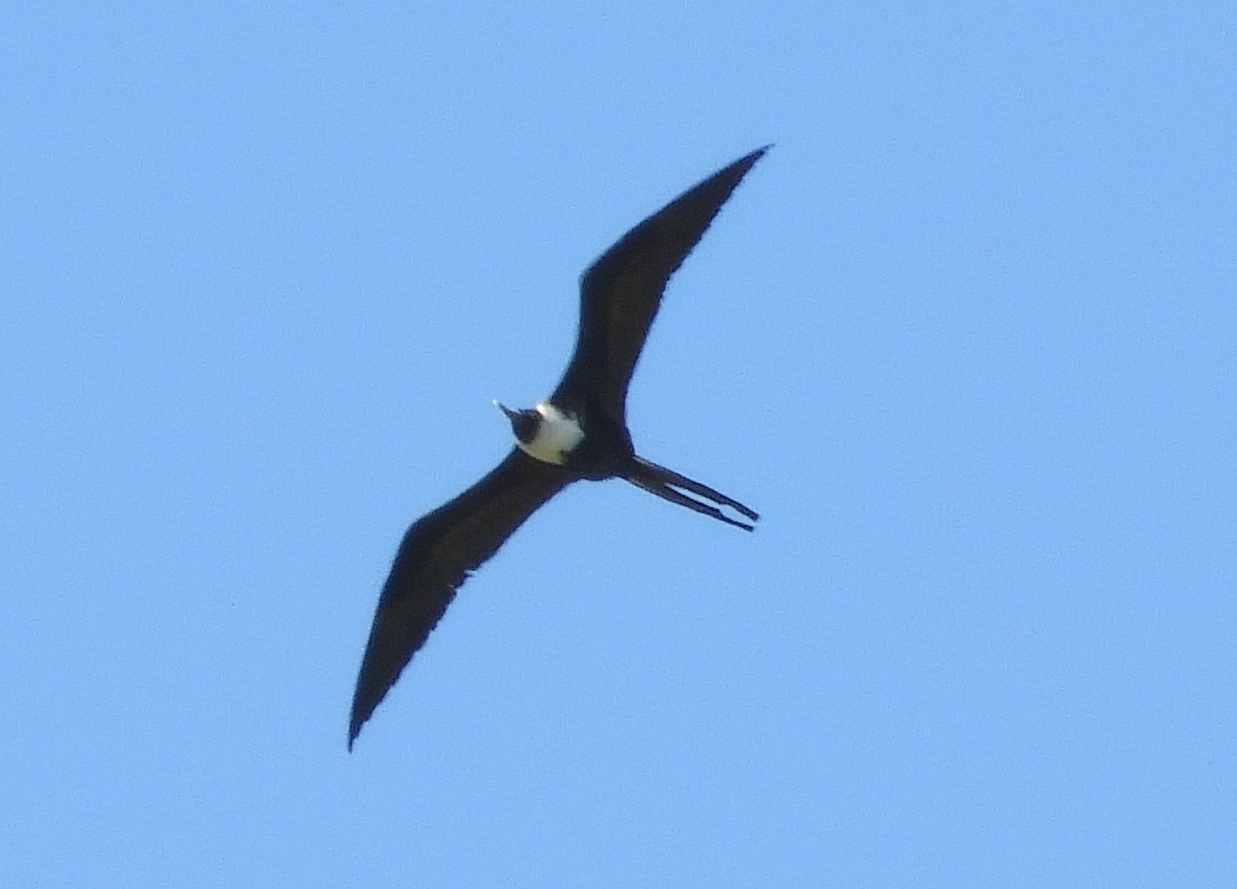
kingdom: Animalia
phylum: Chordata
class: Aves
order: Suliformes
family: Fregatidae
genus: Fregata
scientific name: Fregata magnificens
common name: Magnificent frigatebird
